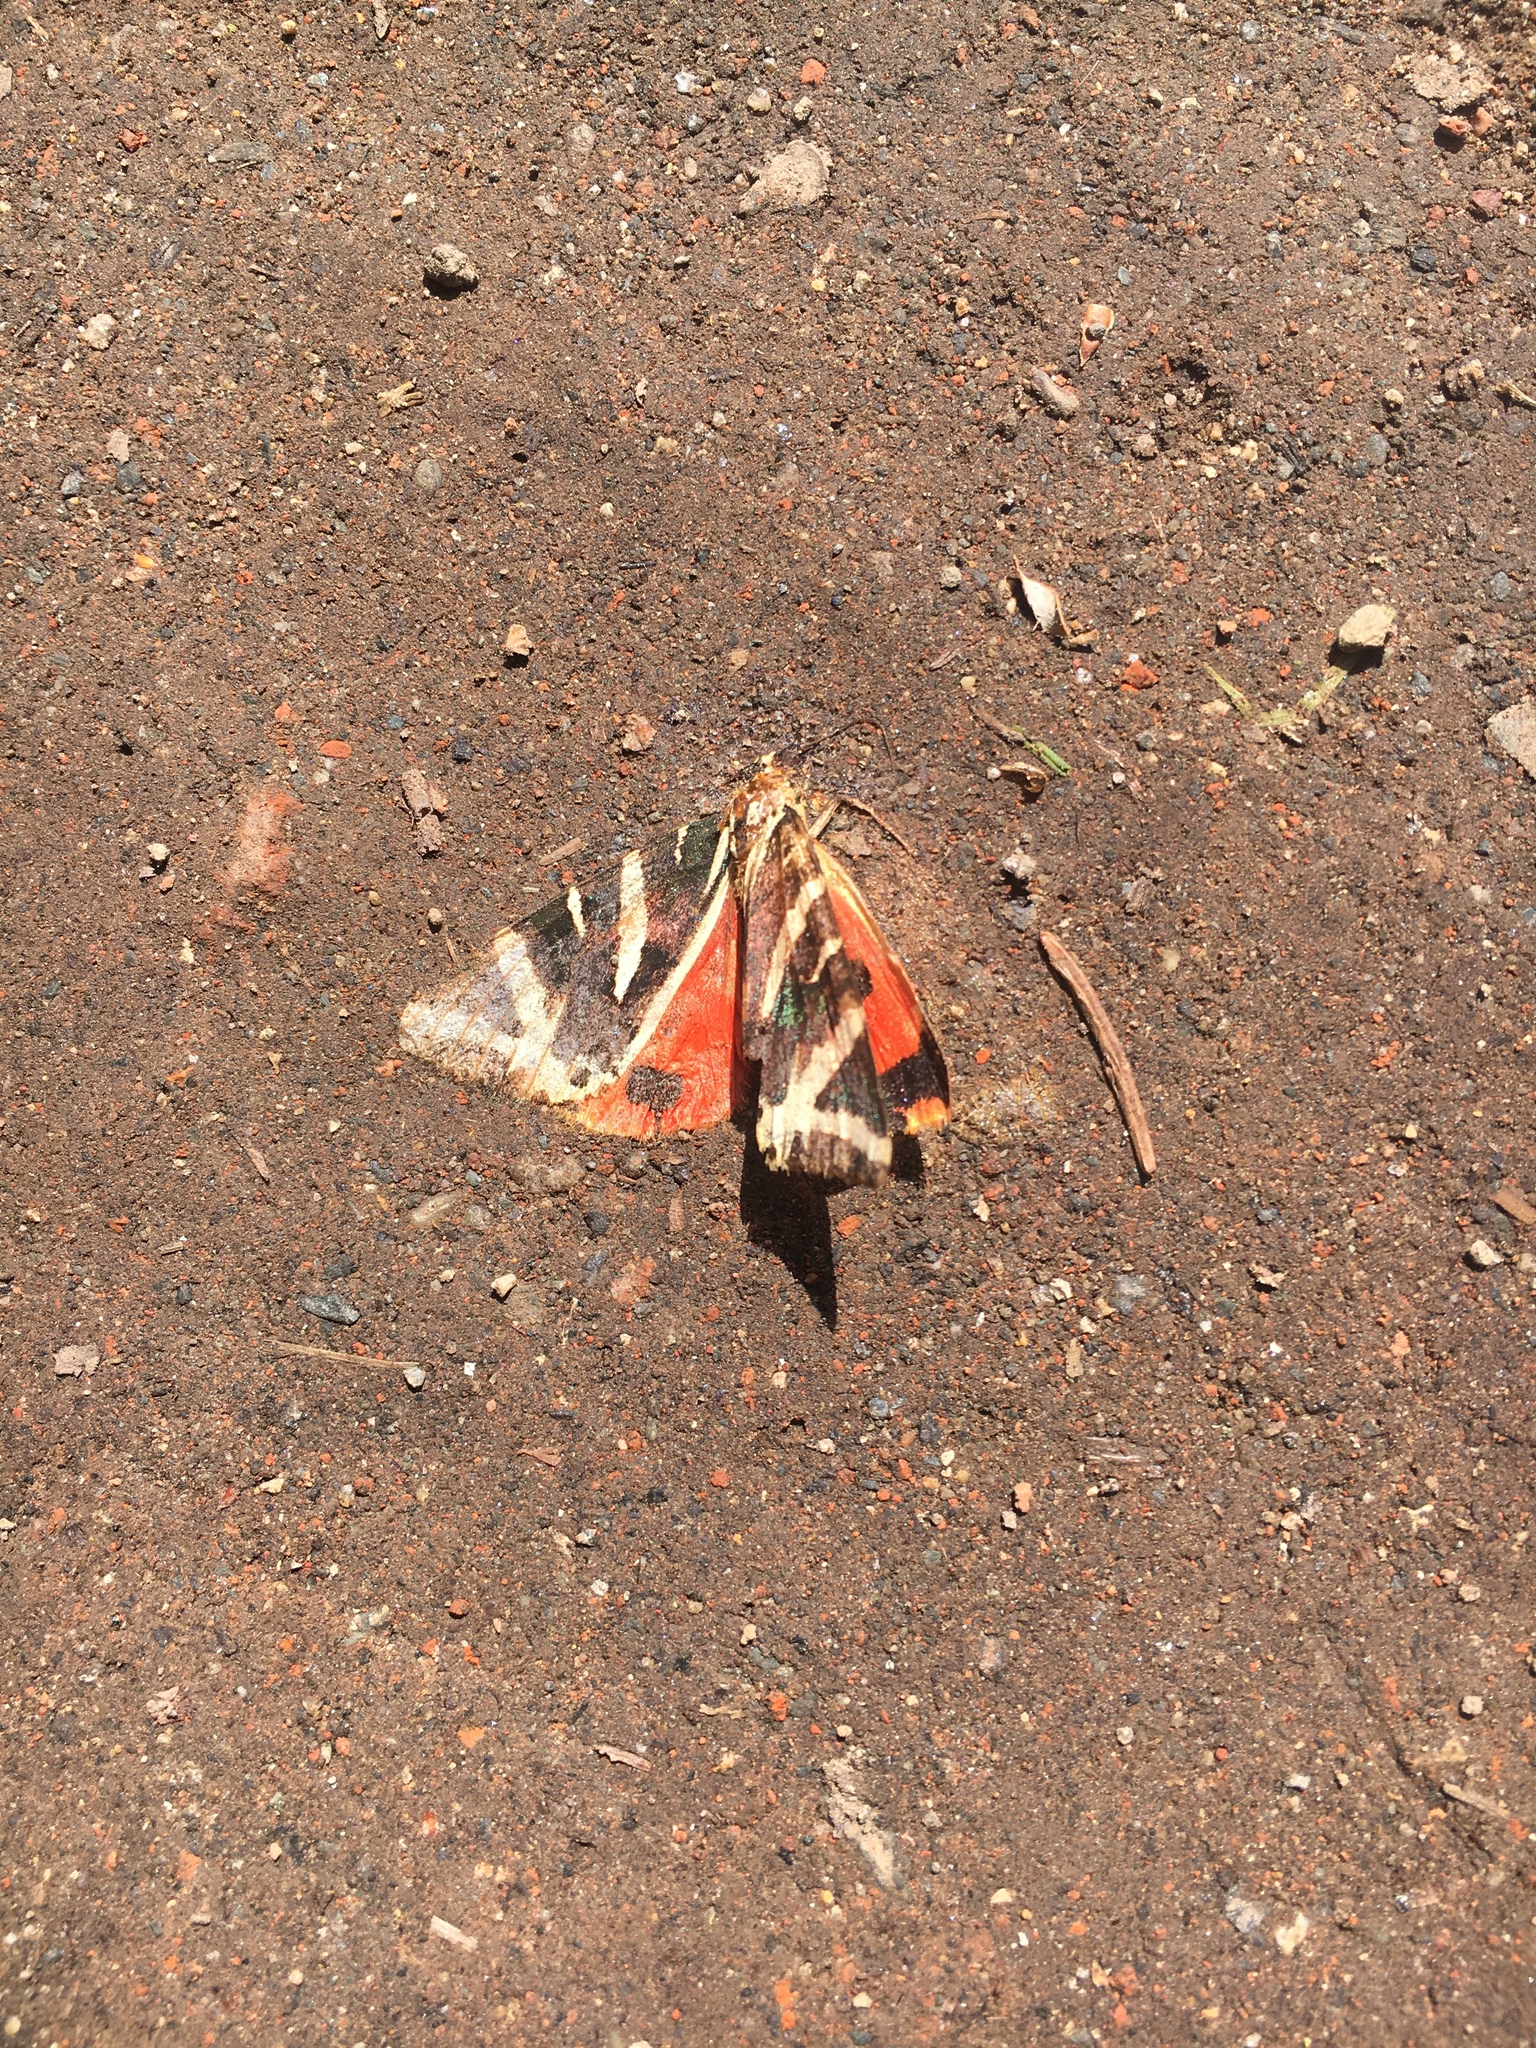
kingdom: Animalia
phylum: Arthropoda
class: Insecta
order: Lepidoptera
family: Erebidae
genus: Euplagia
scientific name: Euplagia quadripunctaria
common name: Jersey tiger
